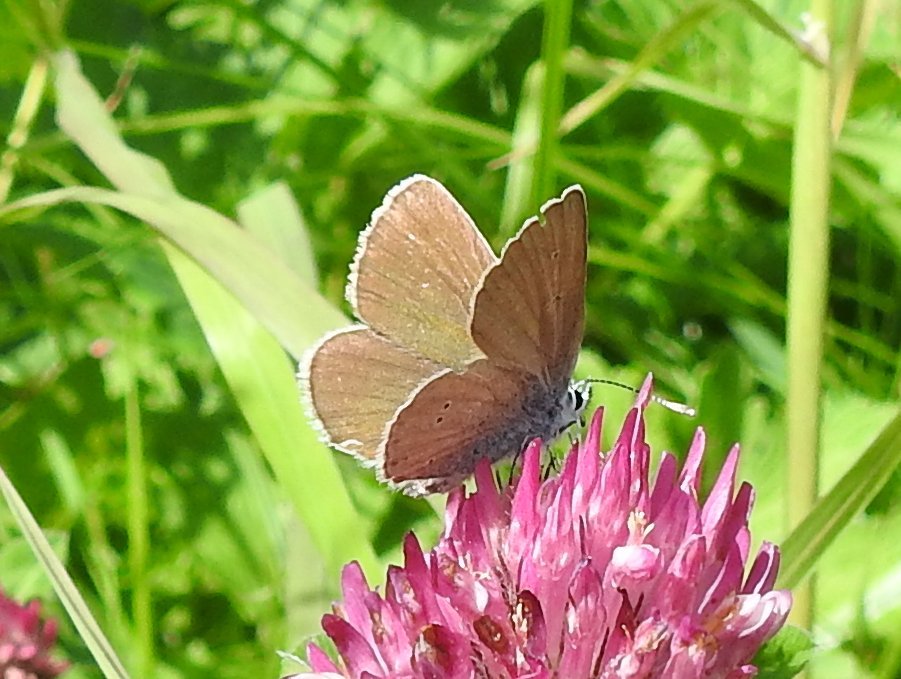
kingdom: Animalia
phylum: Arthropoda
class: Insecta
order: Lepidoptera
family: Lycaenidae
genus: Cyaniris
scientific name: Cyaniris semiargus
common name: Mazarine blue
